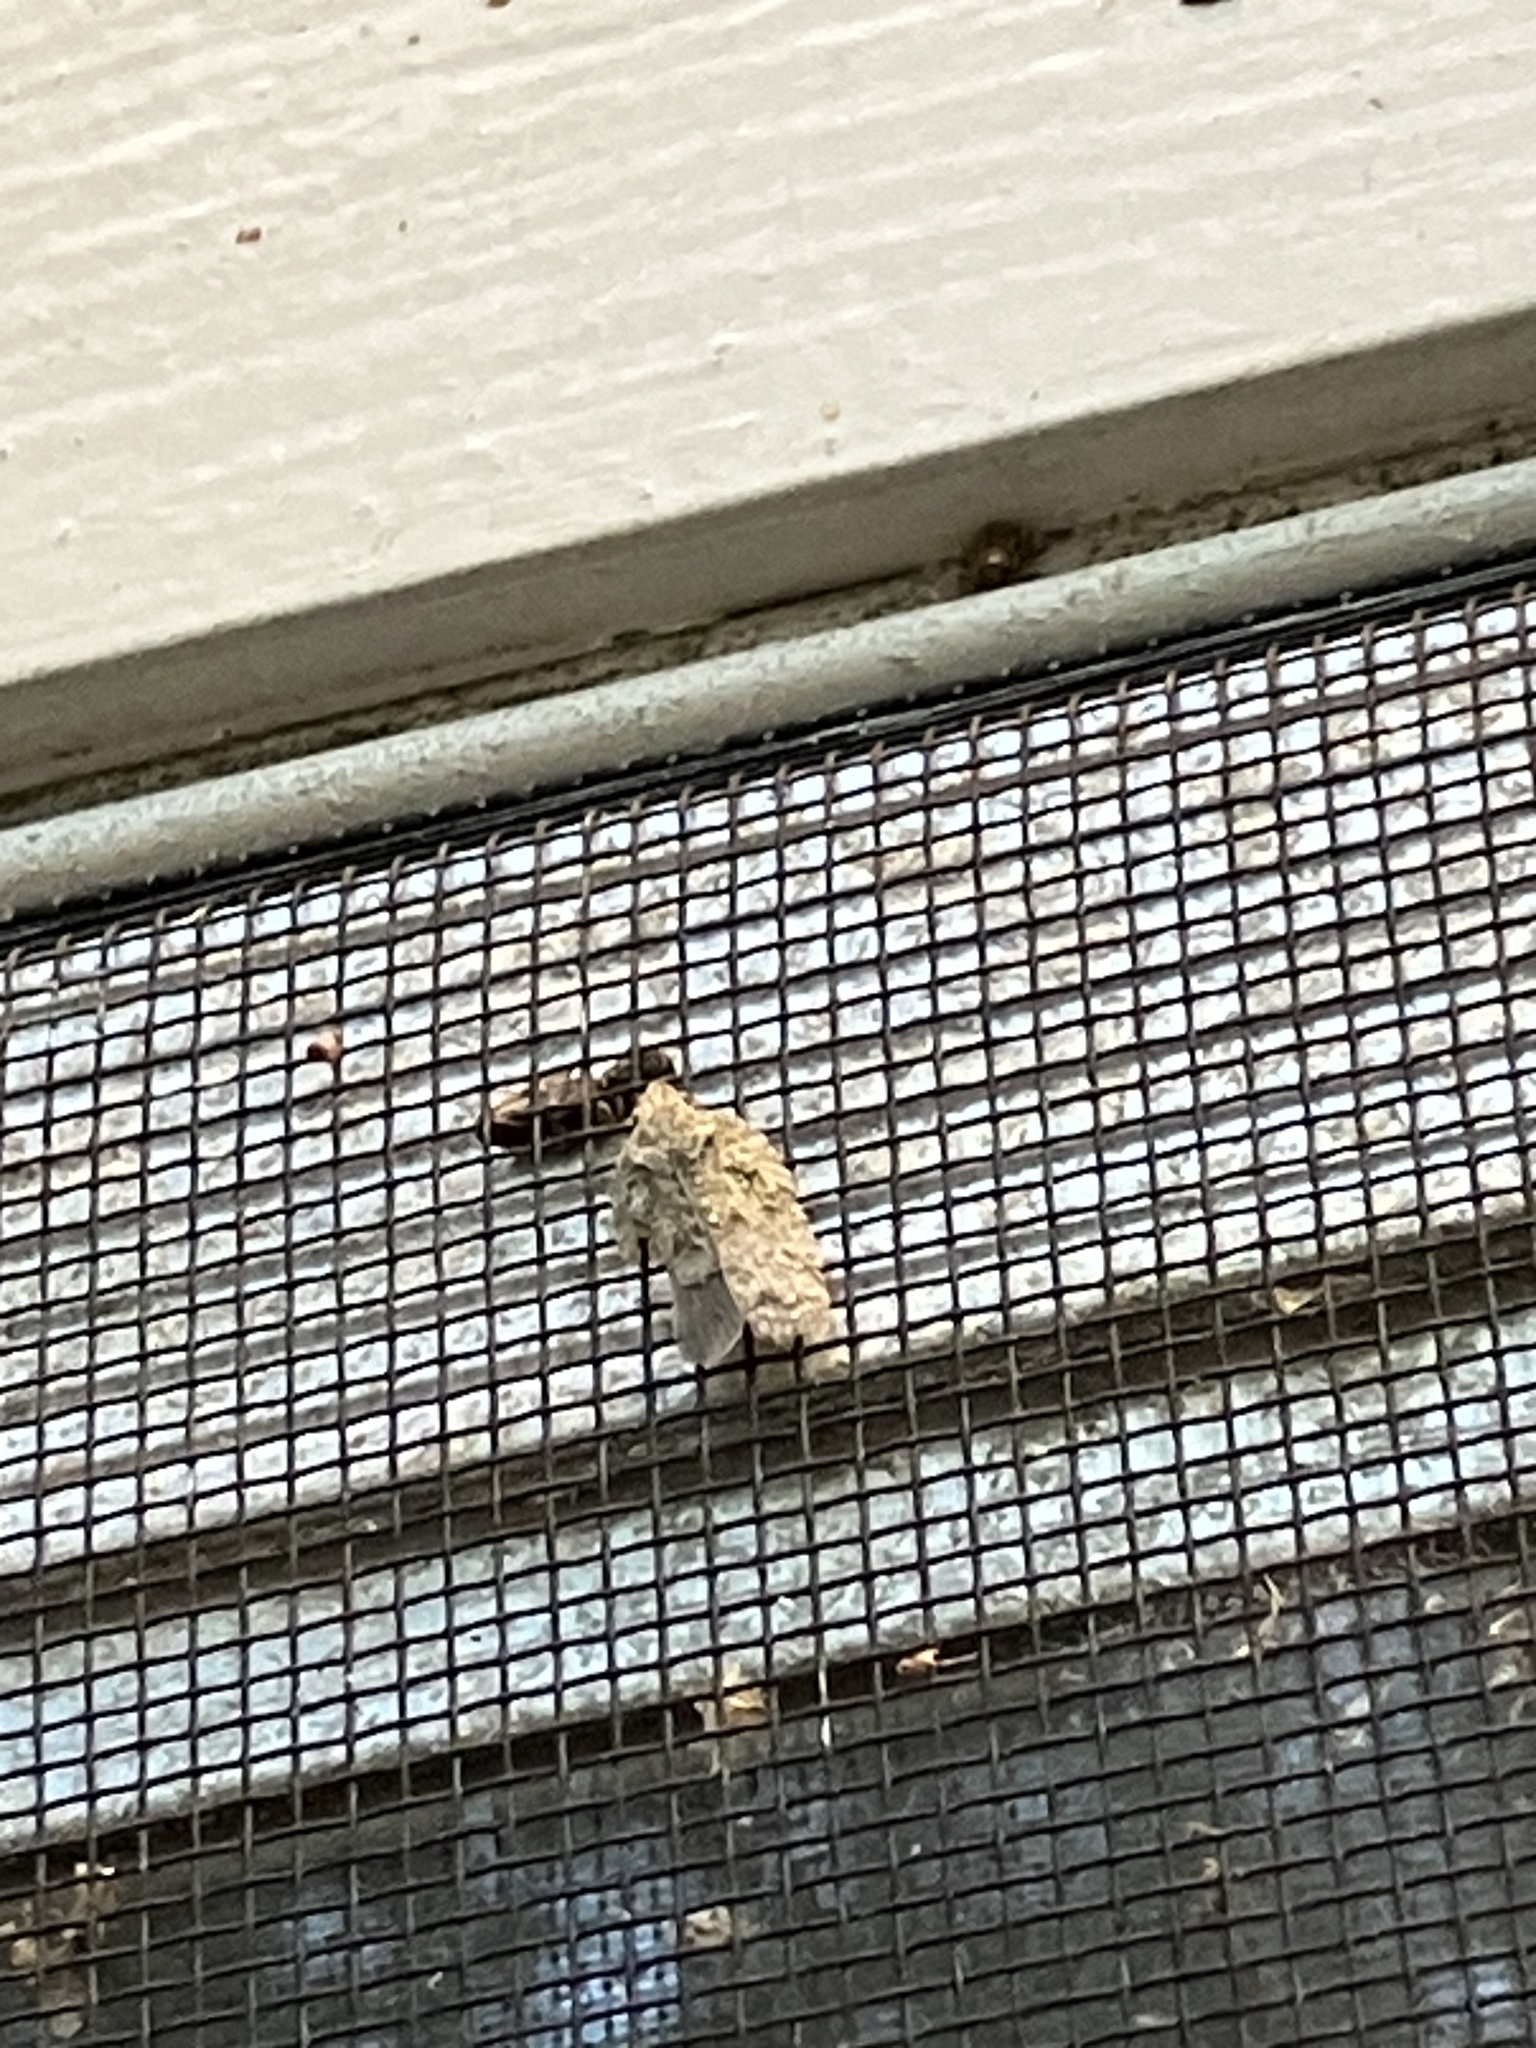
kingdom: Animalia
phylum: Arthropoda
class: Insecta
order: Hemiptera
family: Flatidae
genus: Flatoidinus
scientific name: Flatoidinus punctatus
